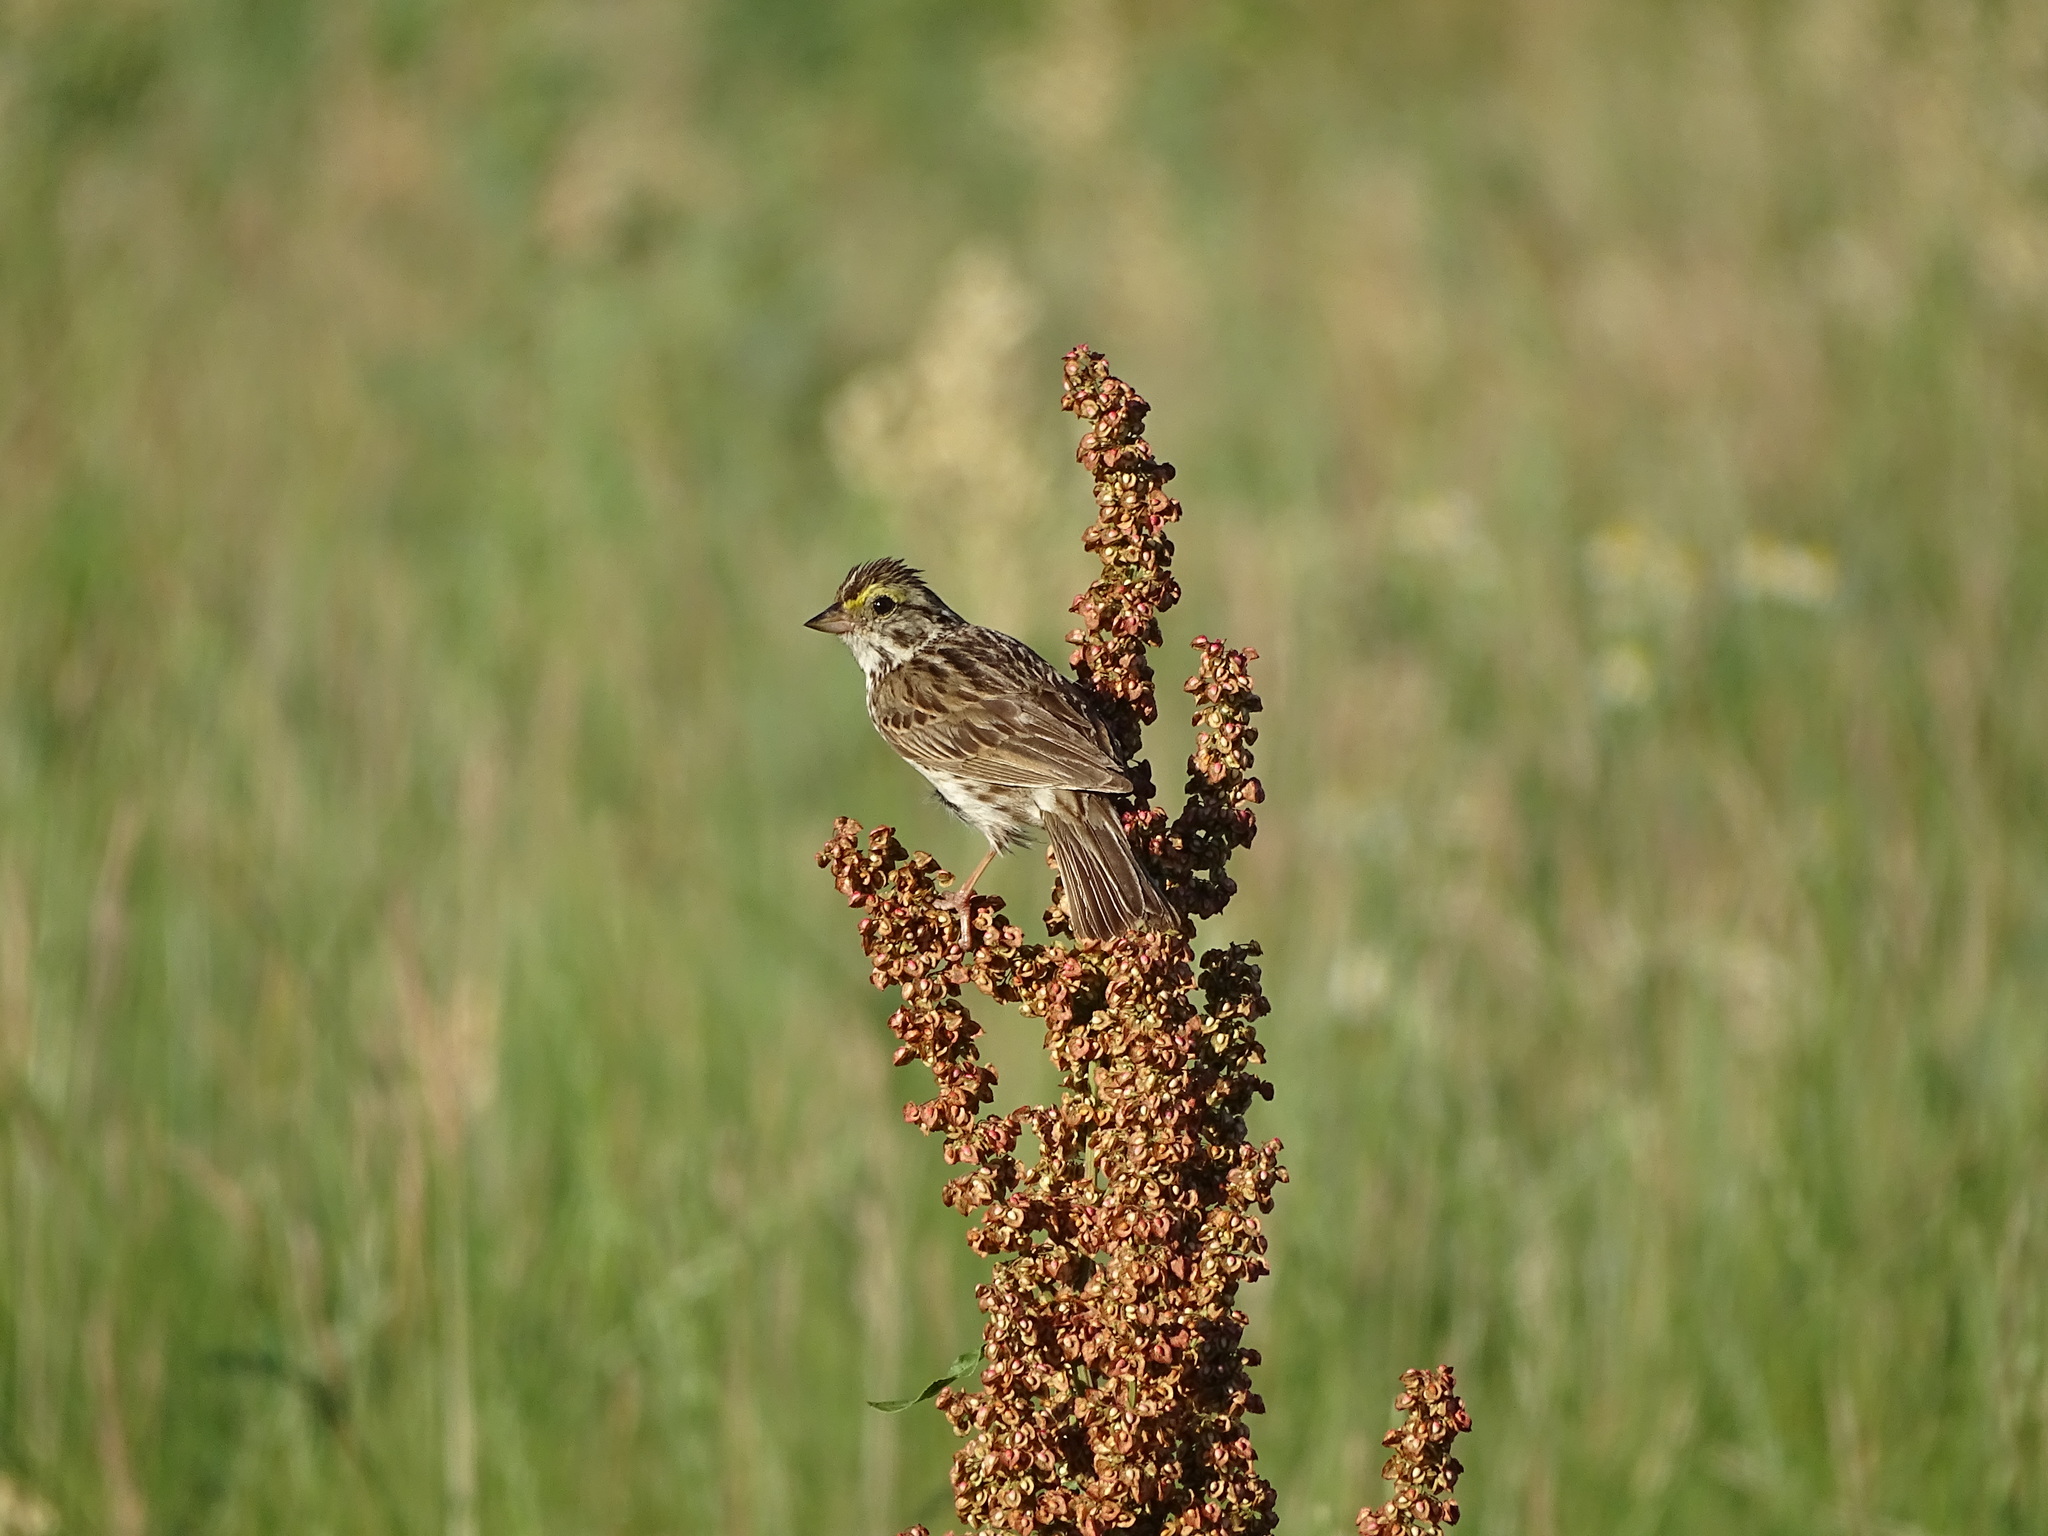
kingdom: Animalia
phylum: Chordata
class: Aves
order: Passeriformes
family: Passerellidae
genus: Passerculus
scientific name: Passerculus sandwichensis
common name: Savannah sparrow
